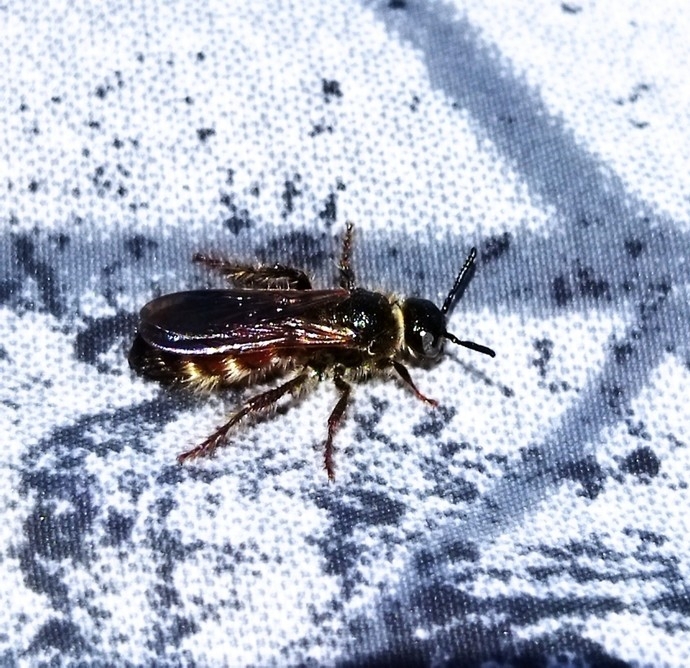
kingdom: Animalia
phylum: Arthropoda
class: Insecta
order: Hymenoptera
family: Scoliidae
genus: Colpa
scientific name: Colpa quinquecincta
